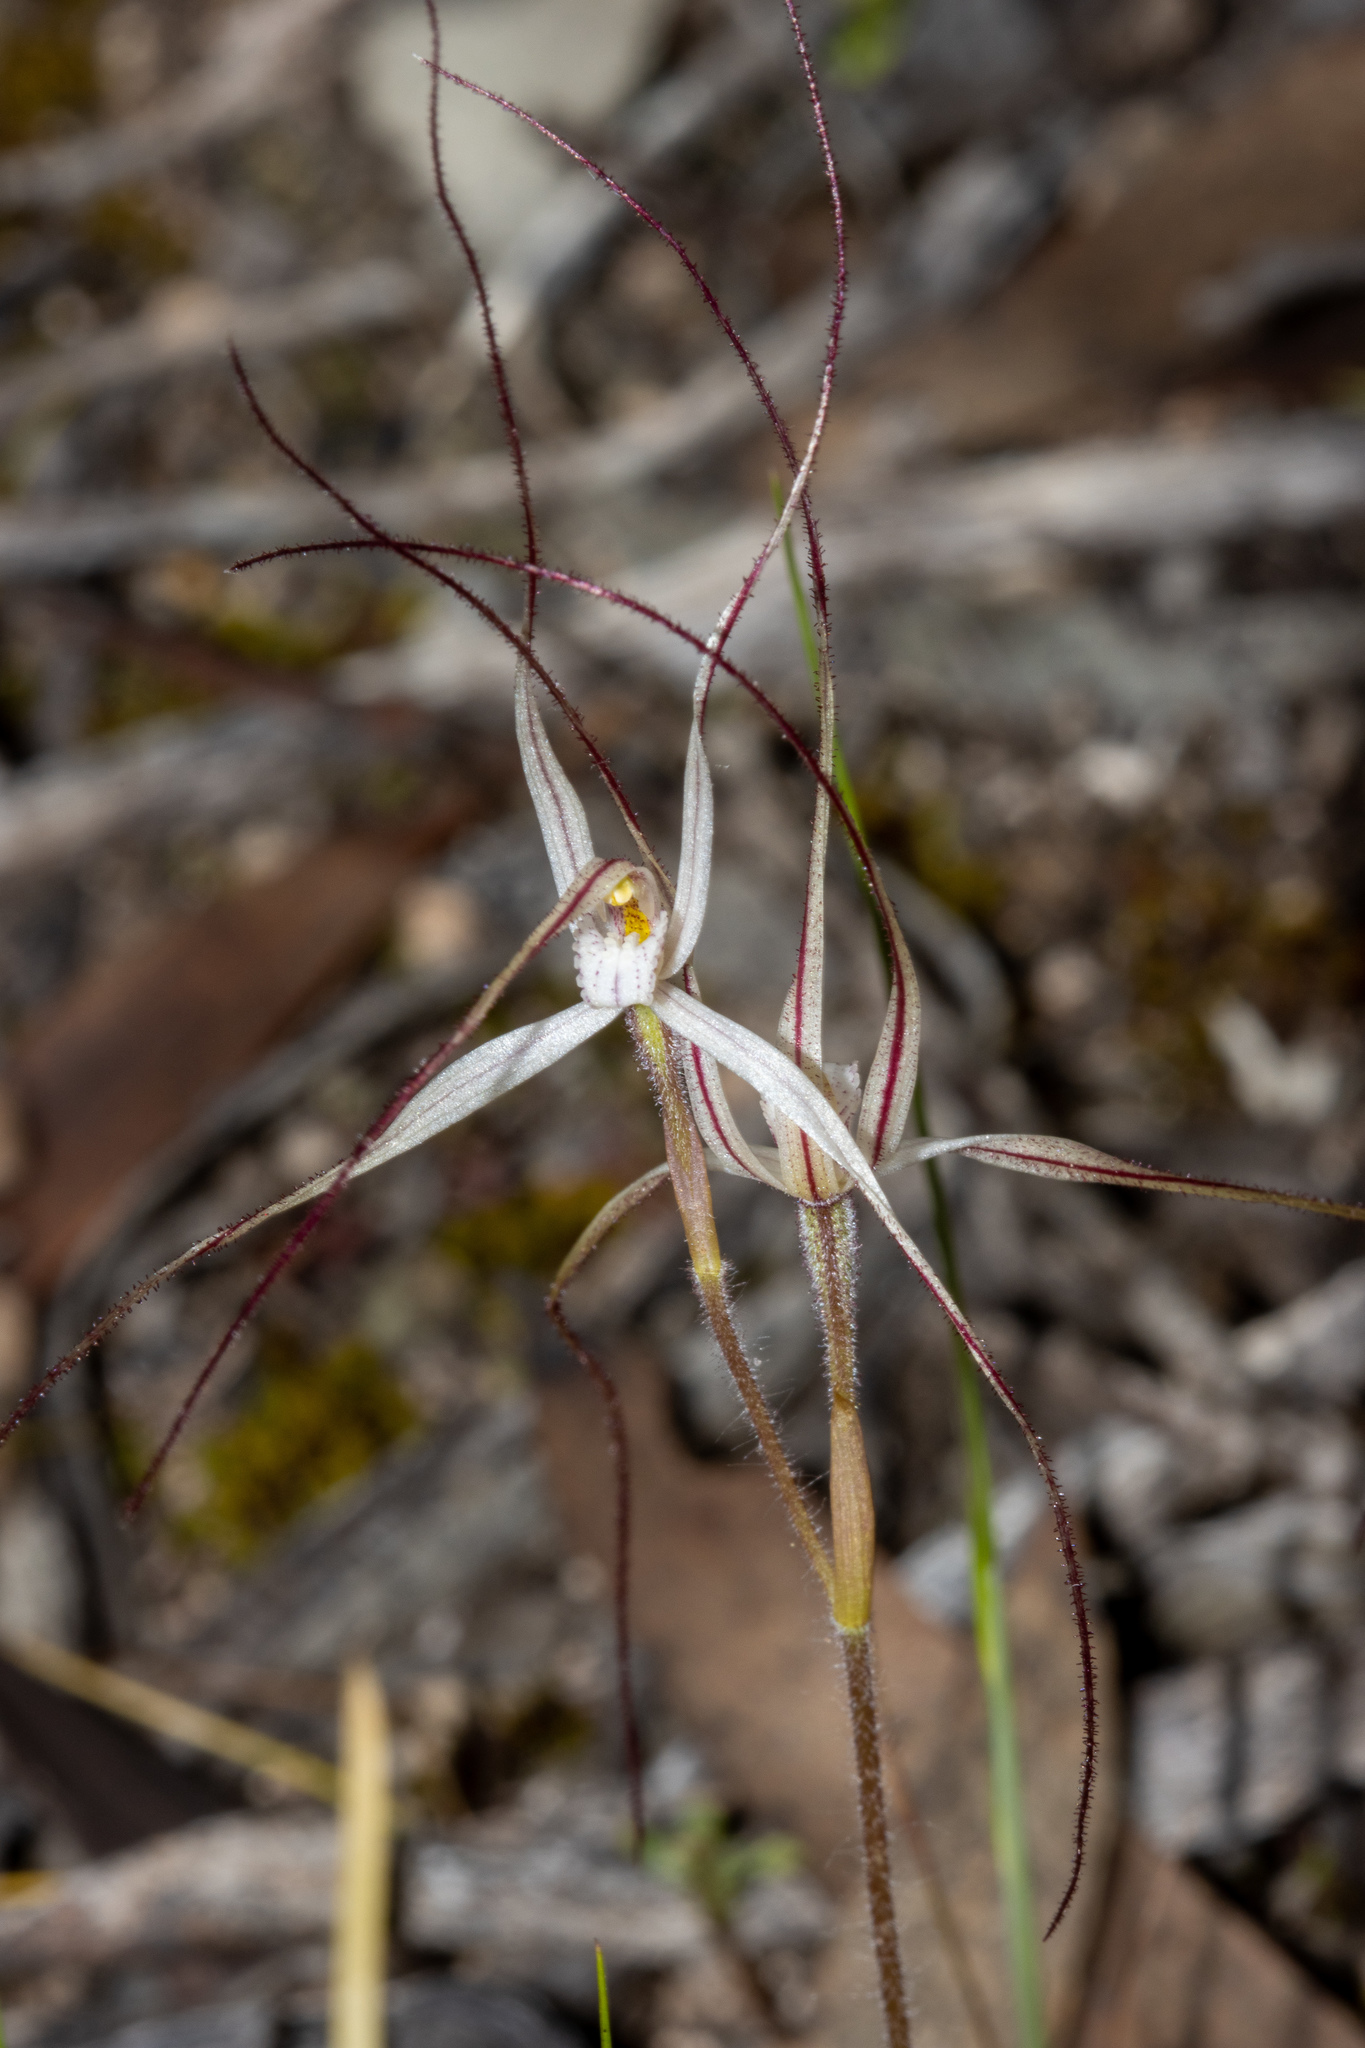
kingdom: Plantae
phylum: Tracheophyta
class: Liliopsida
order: Asparagales
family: Orchidaceae
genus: Caladenia
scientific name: Caladenia capillata
